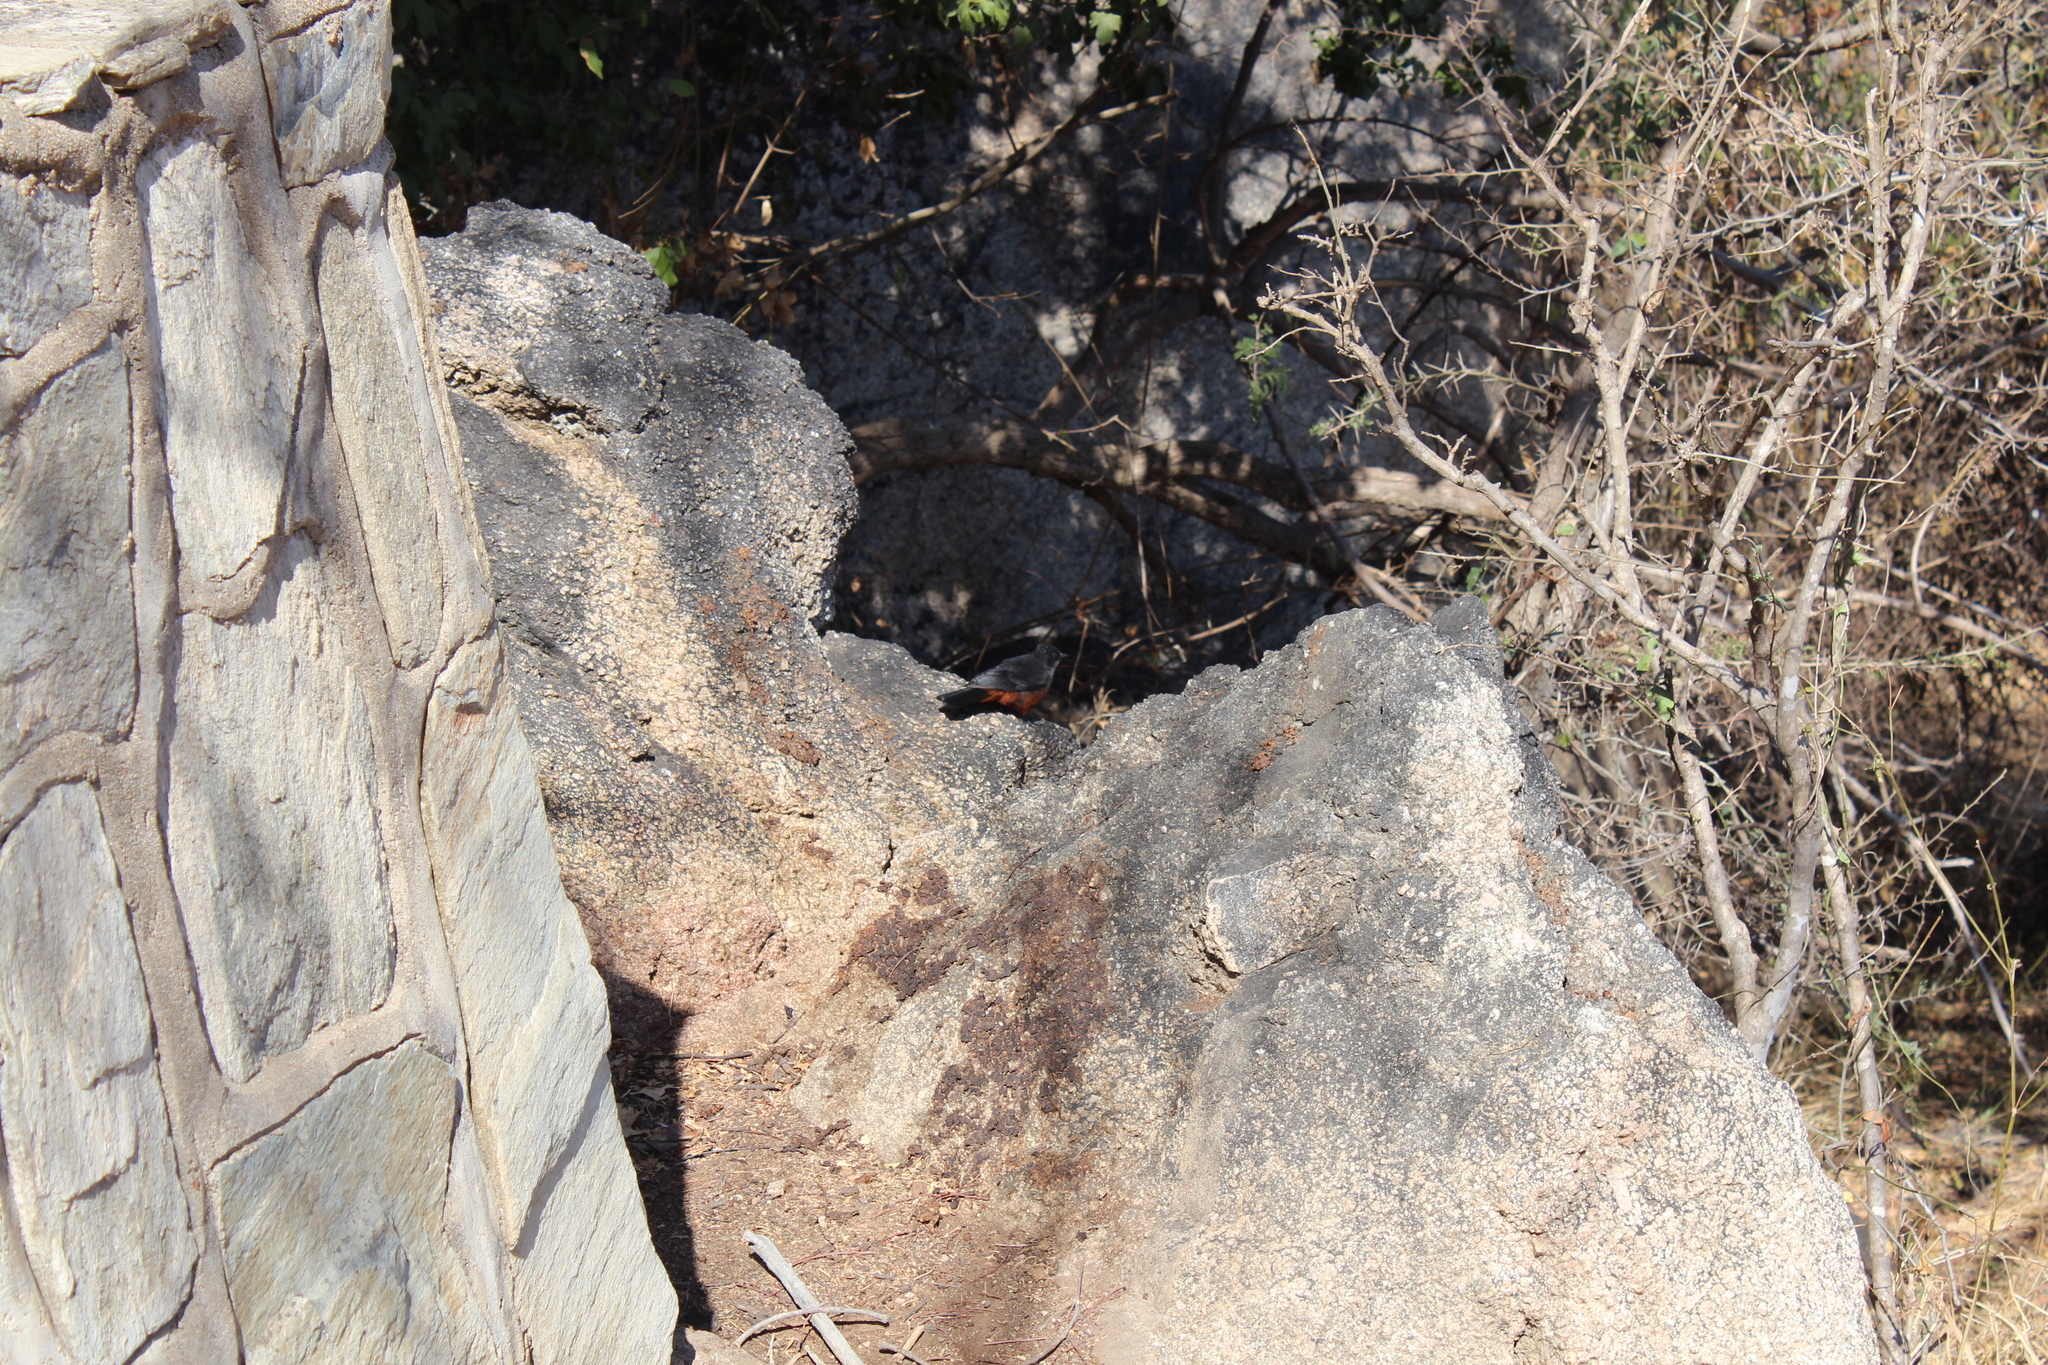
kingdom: Animalia
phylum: Chordata
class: Aves
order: Passeriformes
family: Muscicapidae
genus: Thamnolaea
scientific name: Thamnolaea cinnamomeiventris
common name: Mocking cliff chat
